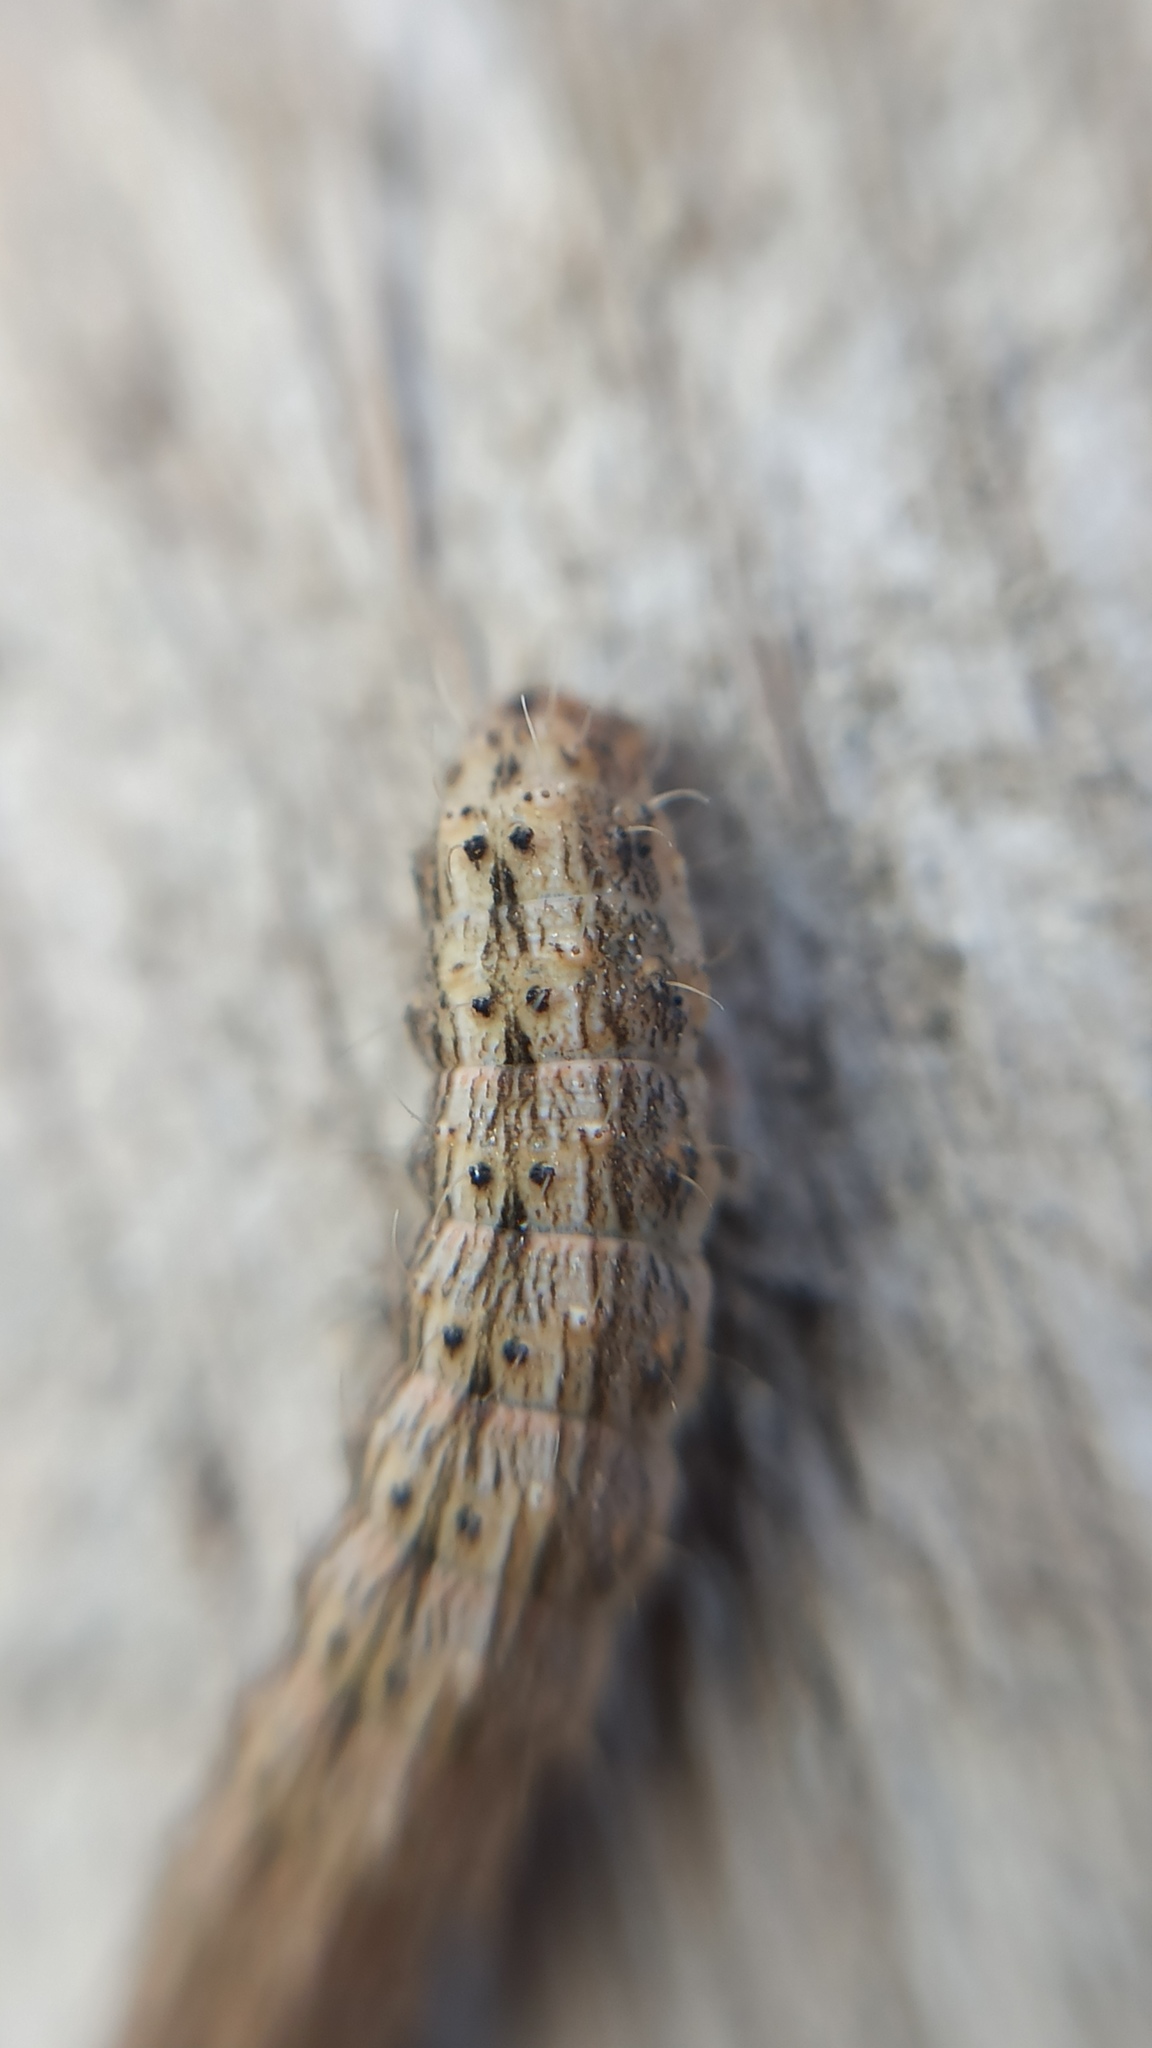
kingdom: Animalia
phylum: Arthropoda
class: Insecta
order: Lepidoptera
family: Noctuidae
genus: Hoplodrina
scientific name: Hoplodrina ambigua
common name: Vine's rustic
